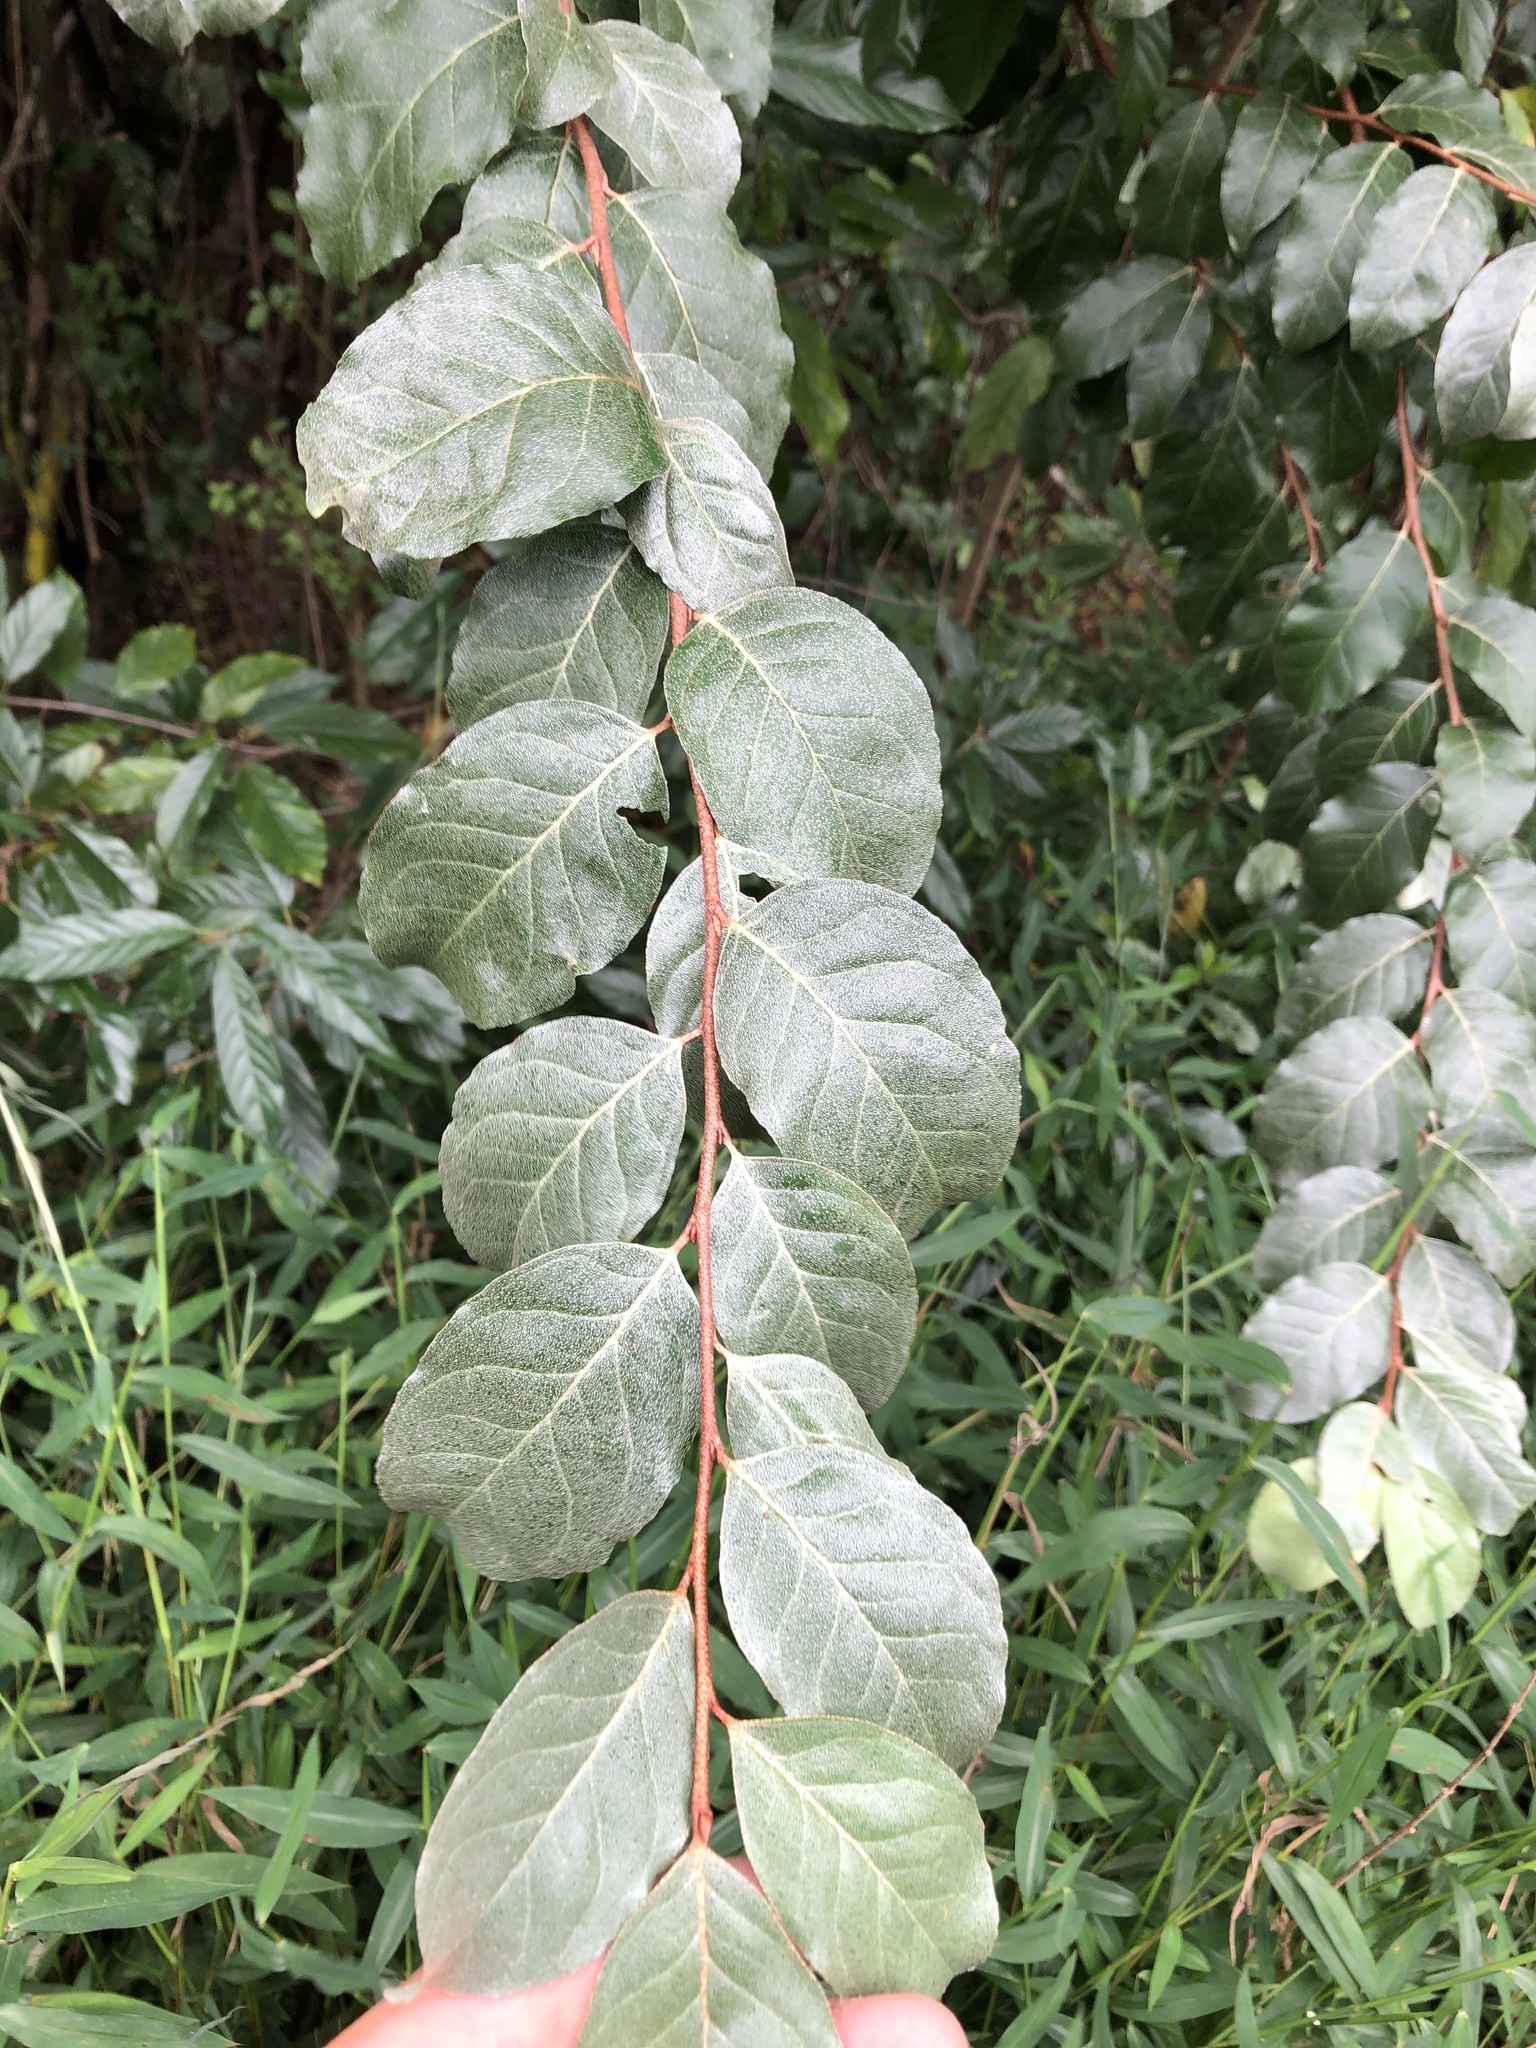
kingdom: Plantae
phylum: Tracheophyta
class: Magnoliopsida
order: Rosales
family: Elaeagnaceae
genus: Elaeagnus
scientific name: Elaeagnus umbellata
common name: Autumn olive
